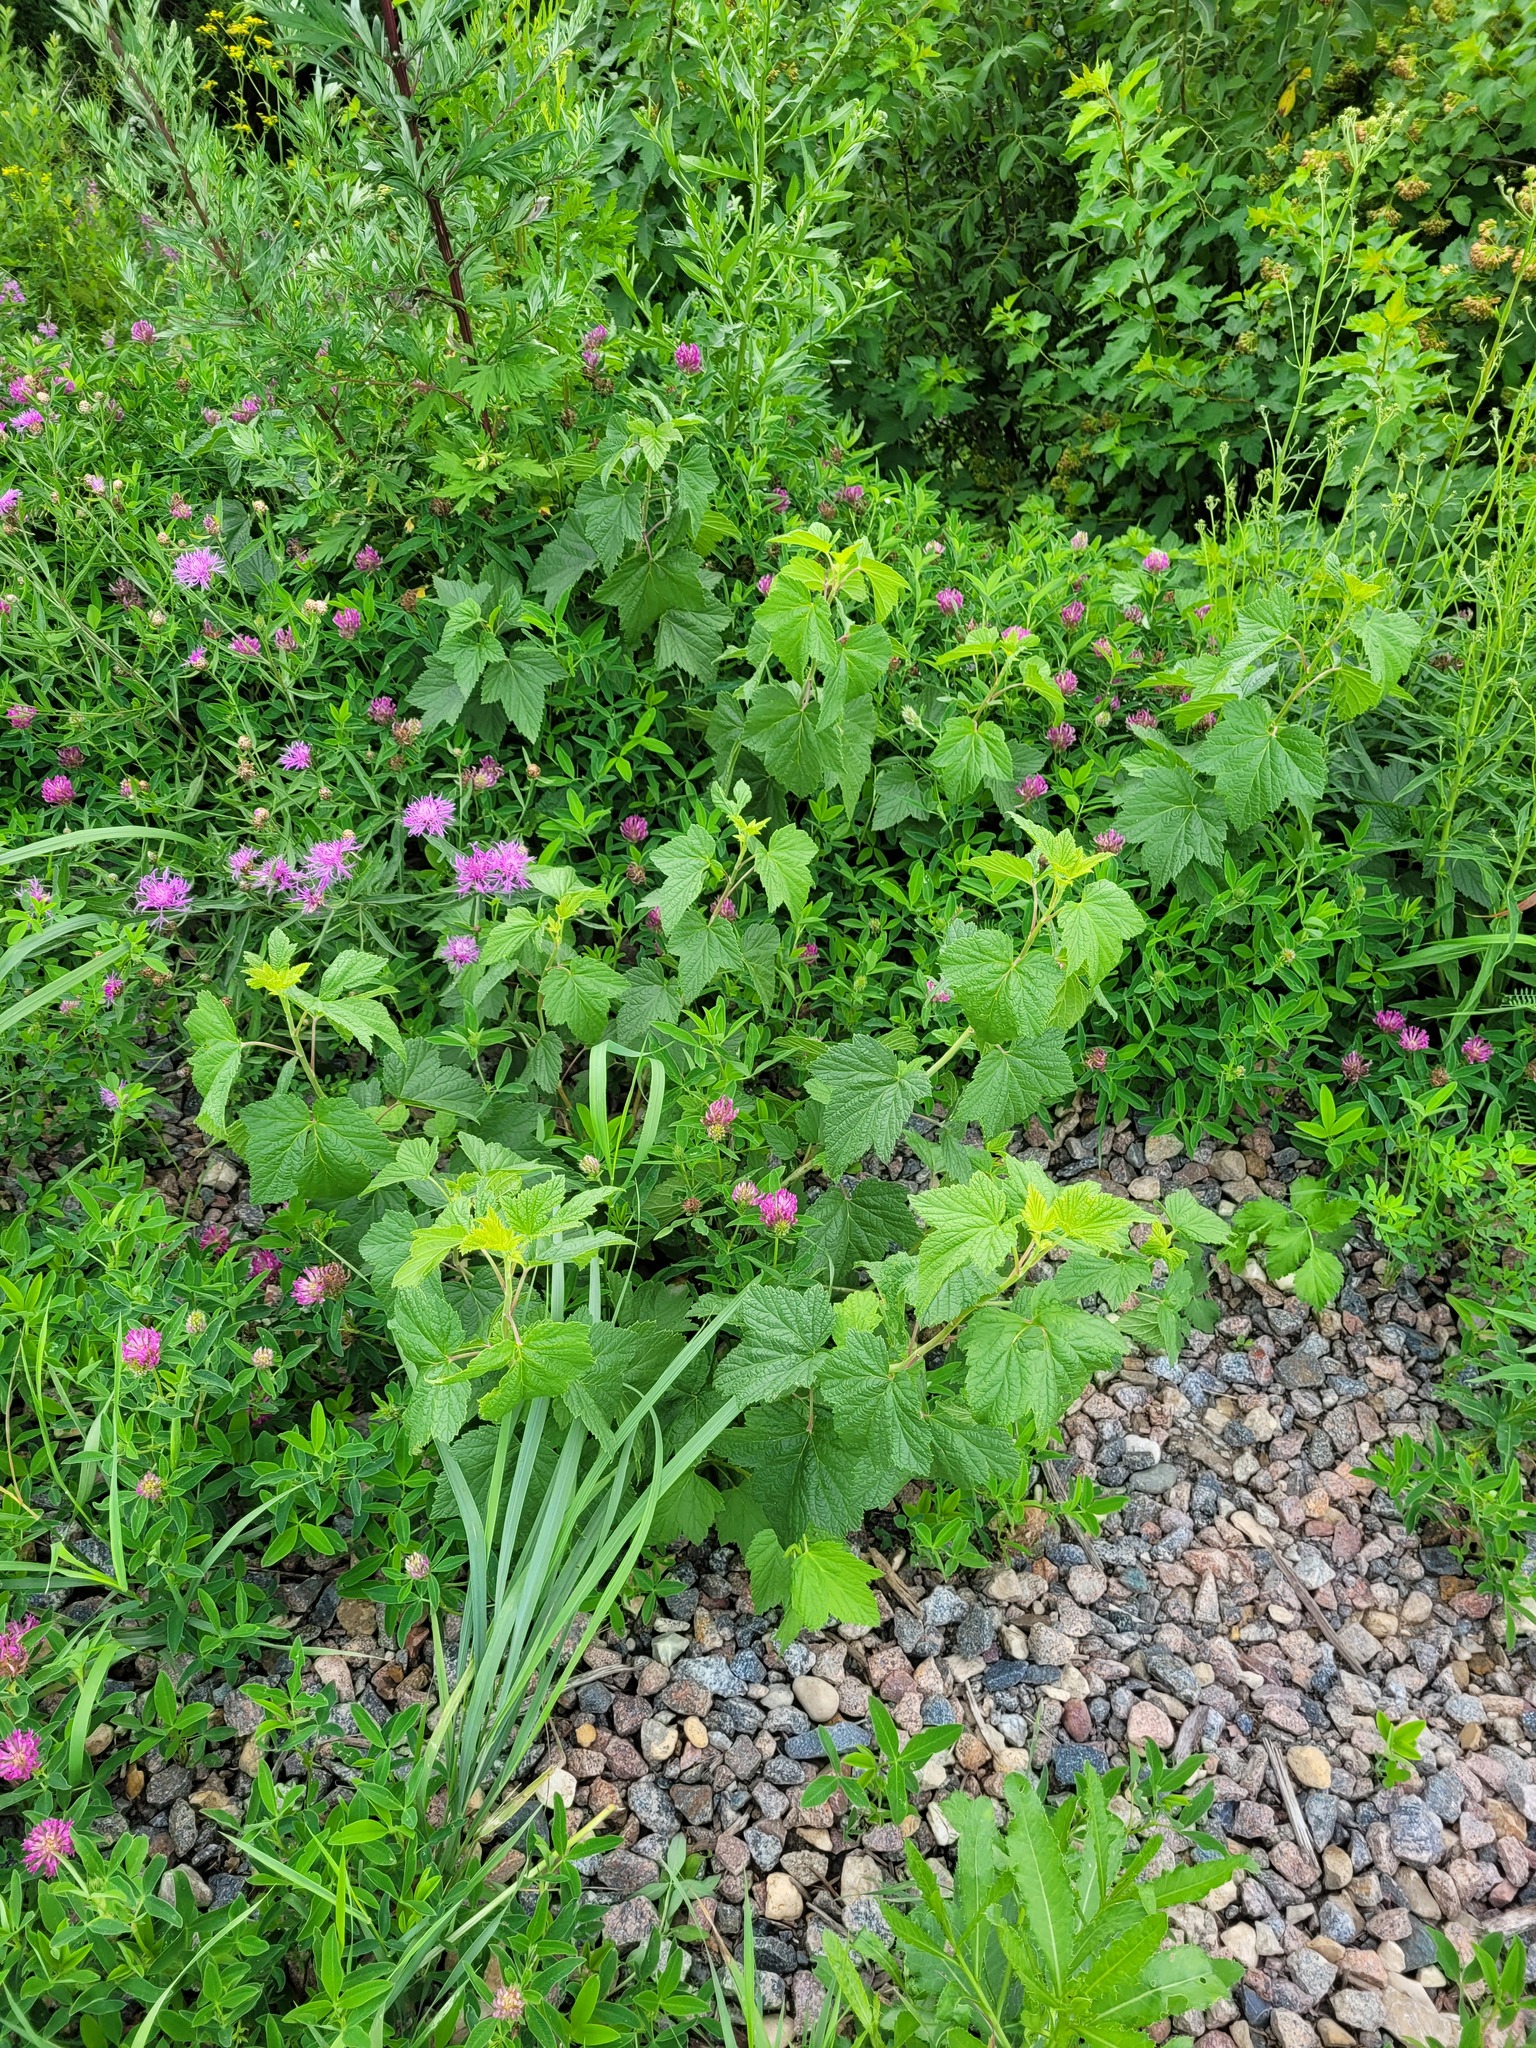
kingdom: Plantae
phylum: Tracheophyta
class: Magnoliopsida
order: Saxifragales
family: Grossulariaceae
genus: Ribes
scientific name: Ribes nigrum
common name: Black currant
